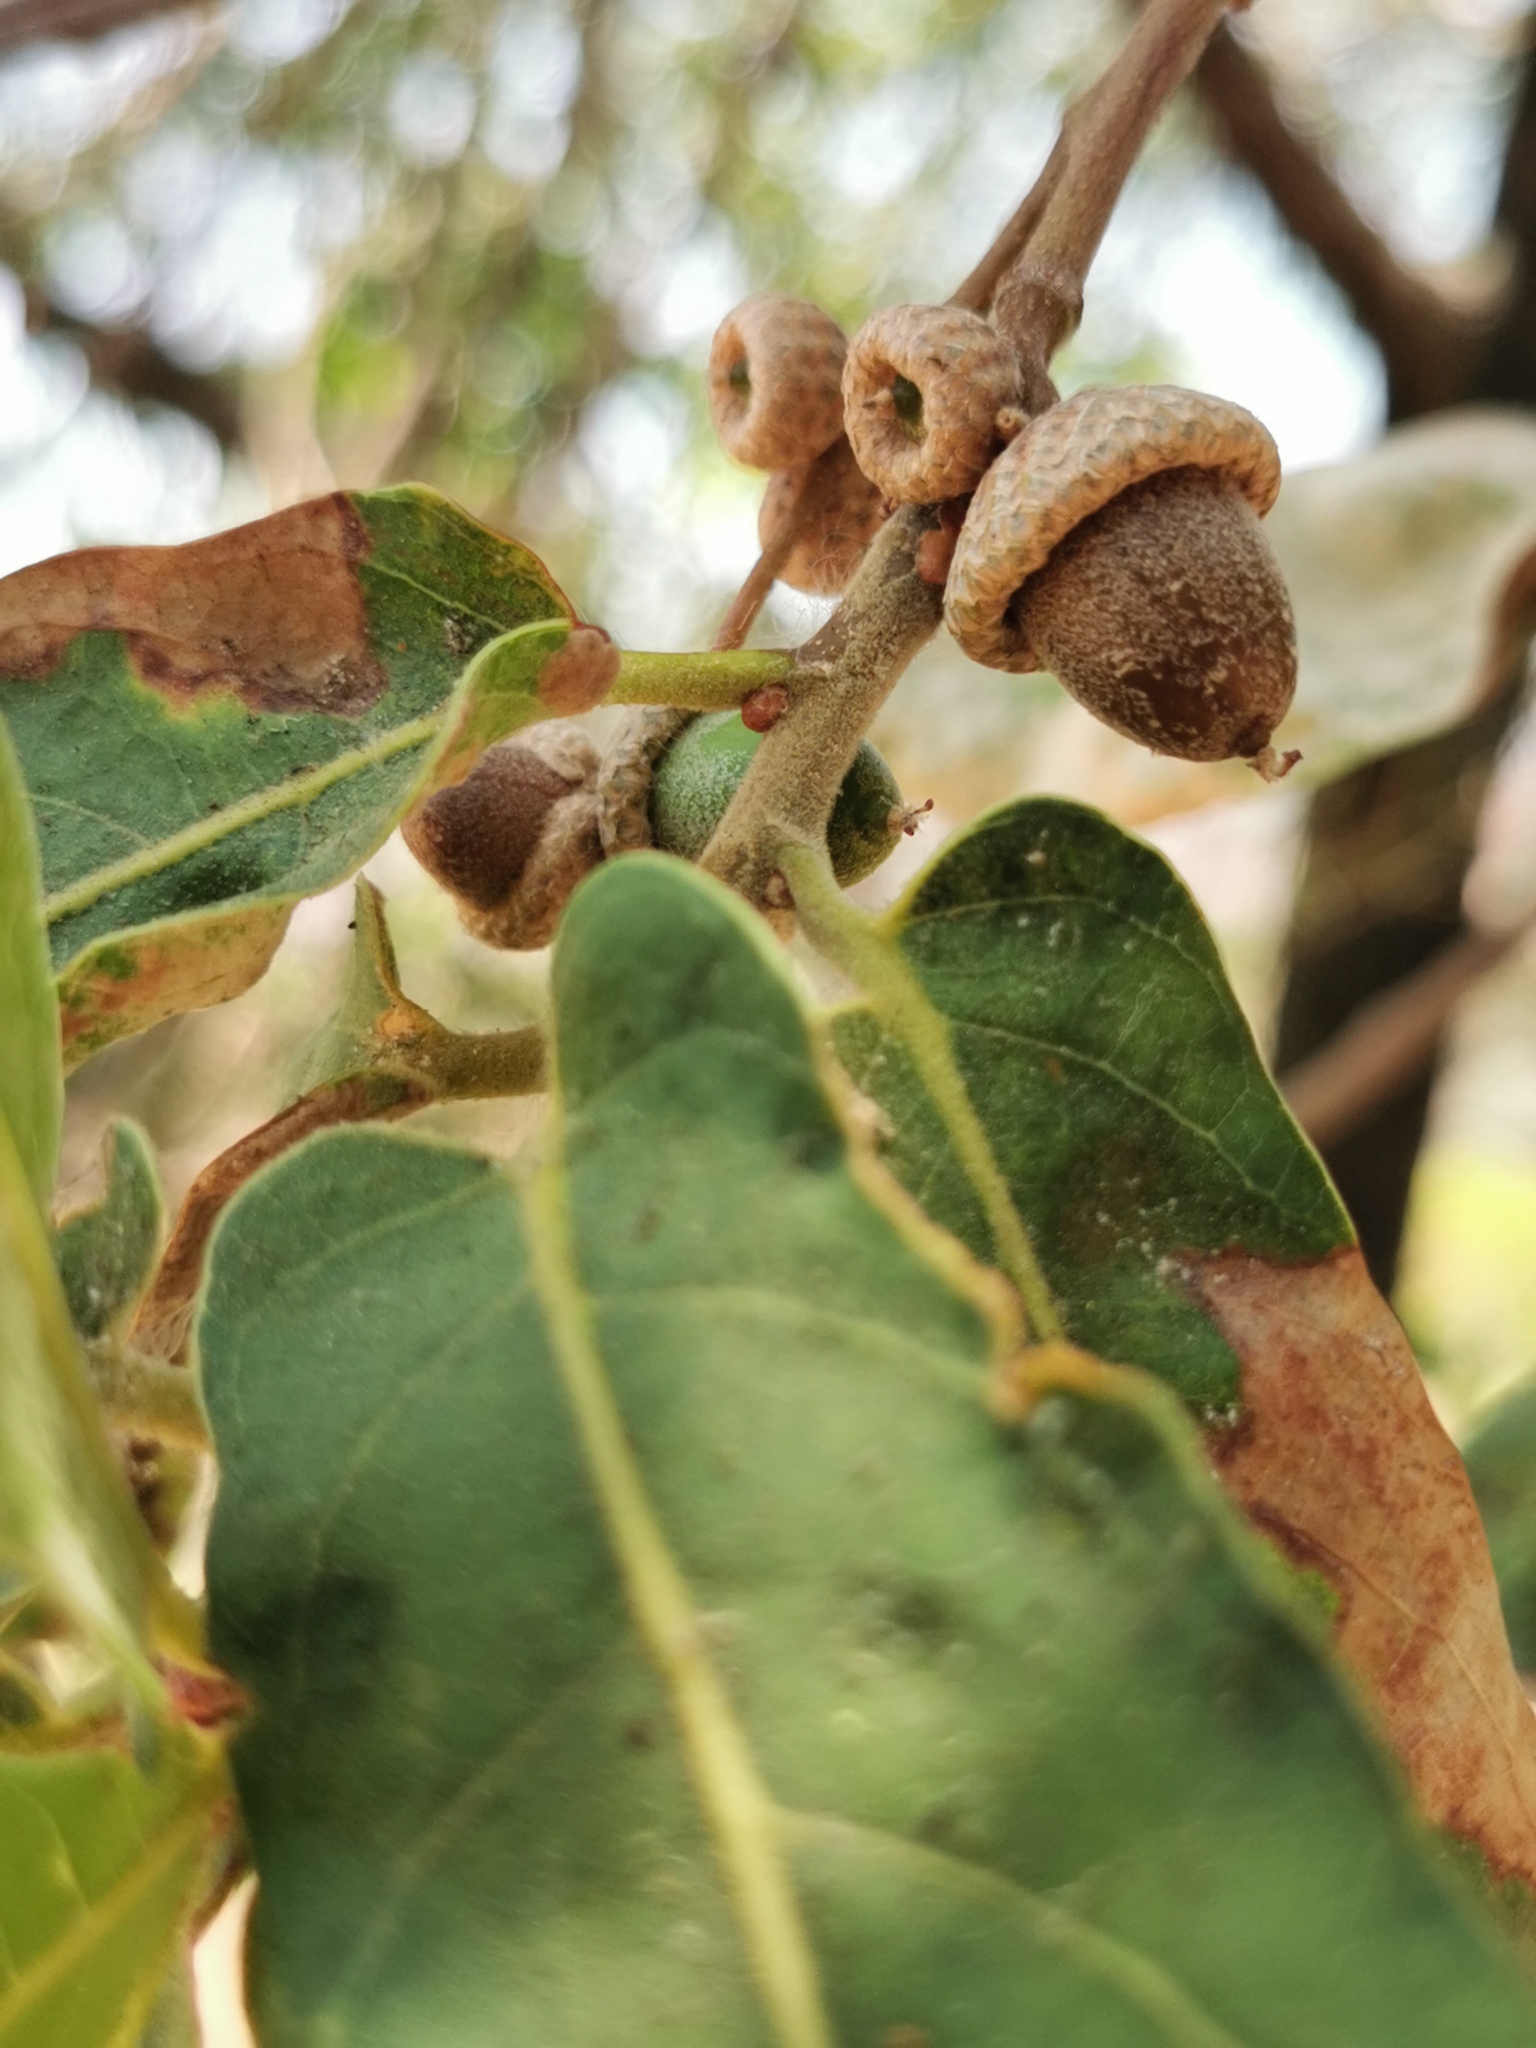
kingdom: Plantae
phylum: Tracheophyta
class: Magnoliopsida
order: Fagales
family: Fagaceae
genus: Quercus
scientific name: Quercus aristata
